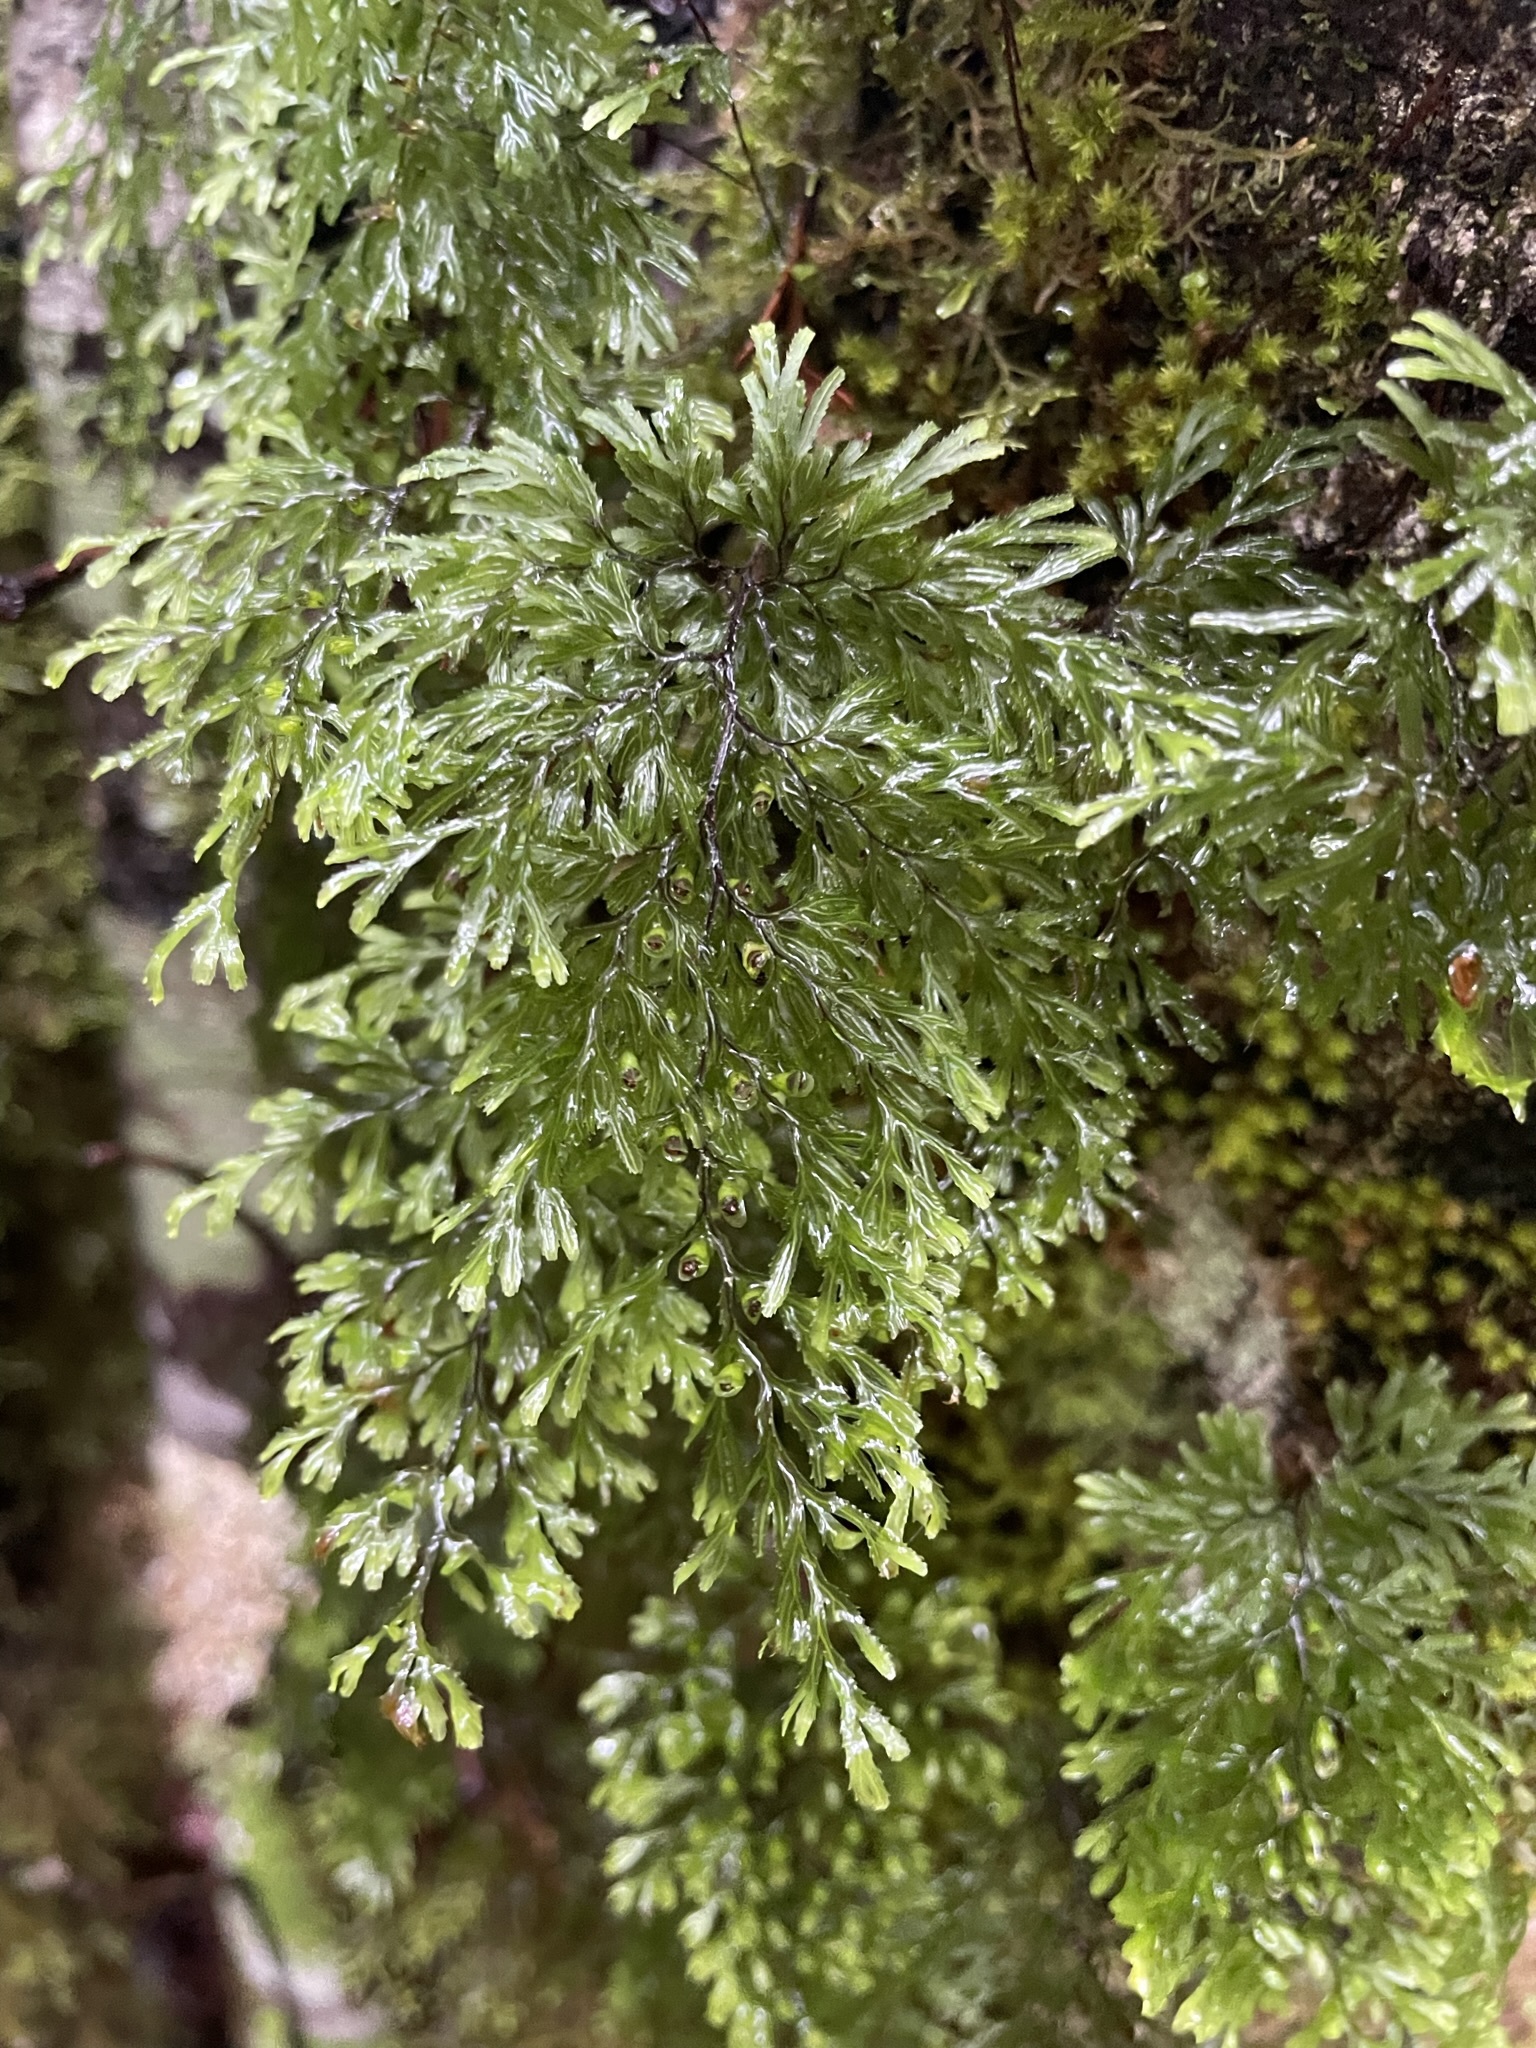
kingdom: Plantae
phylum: Tracheophyta
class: Polypodiopsida
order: Hymenophyllales
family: Hymenophyllaceae
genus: Hymenophyllum
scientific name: Hymenophyllum multifidum
